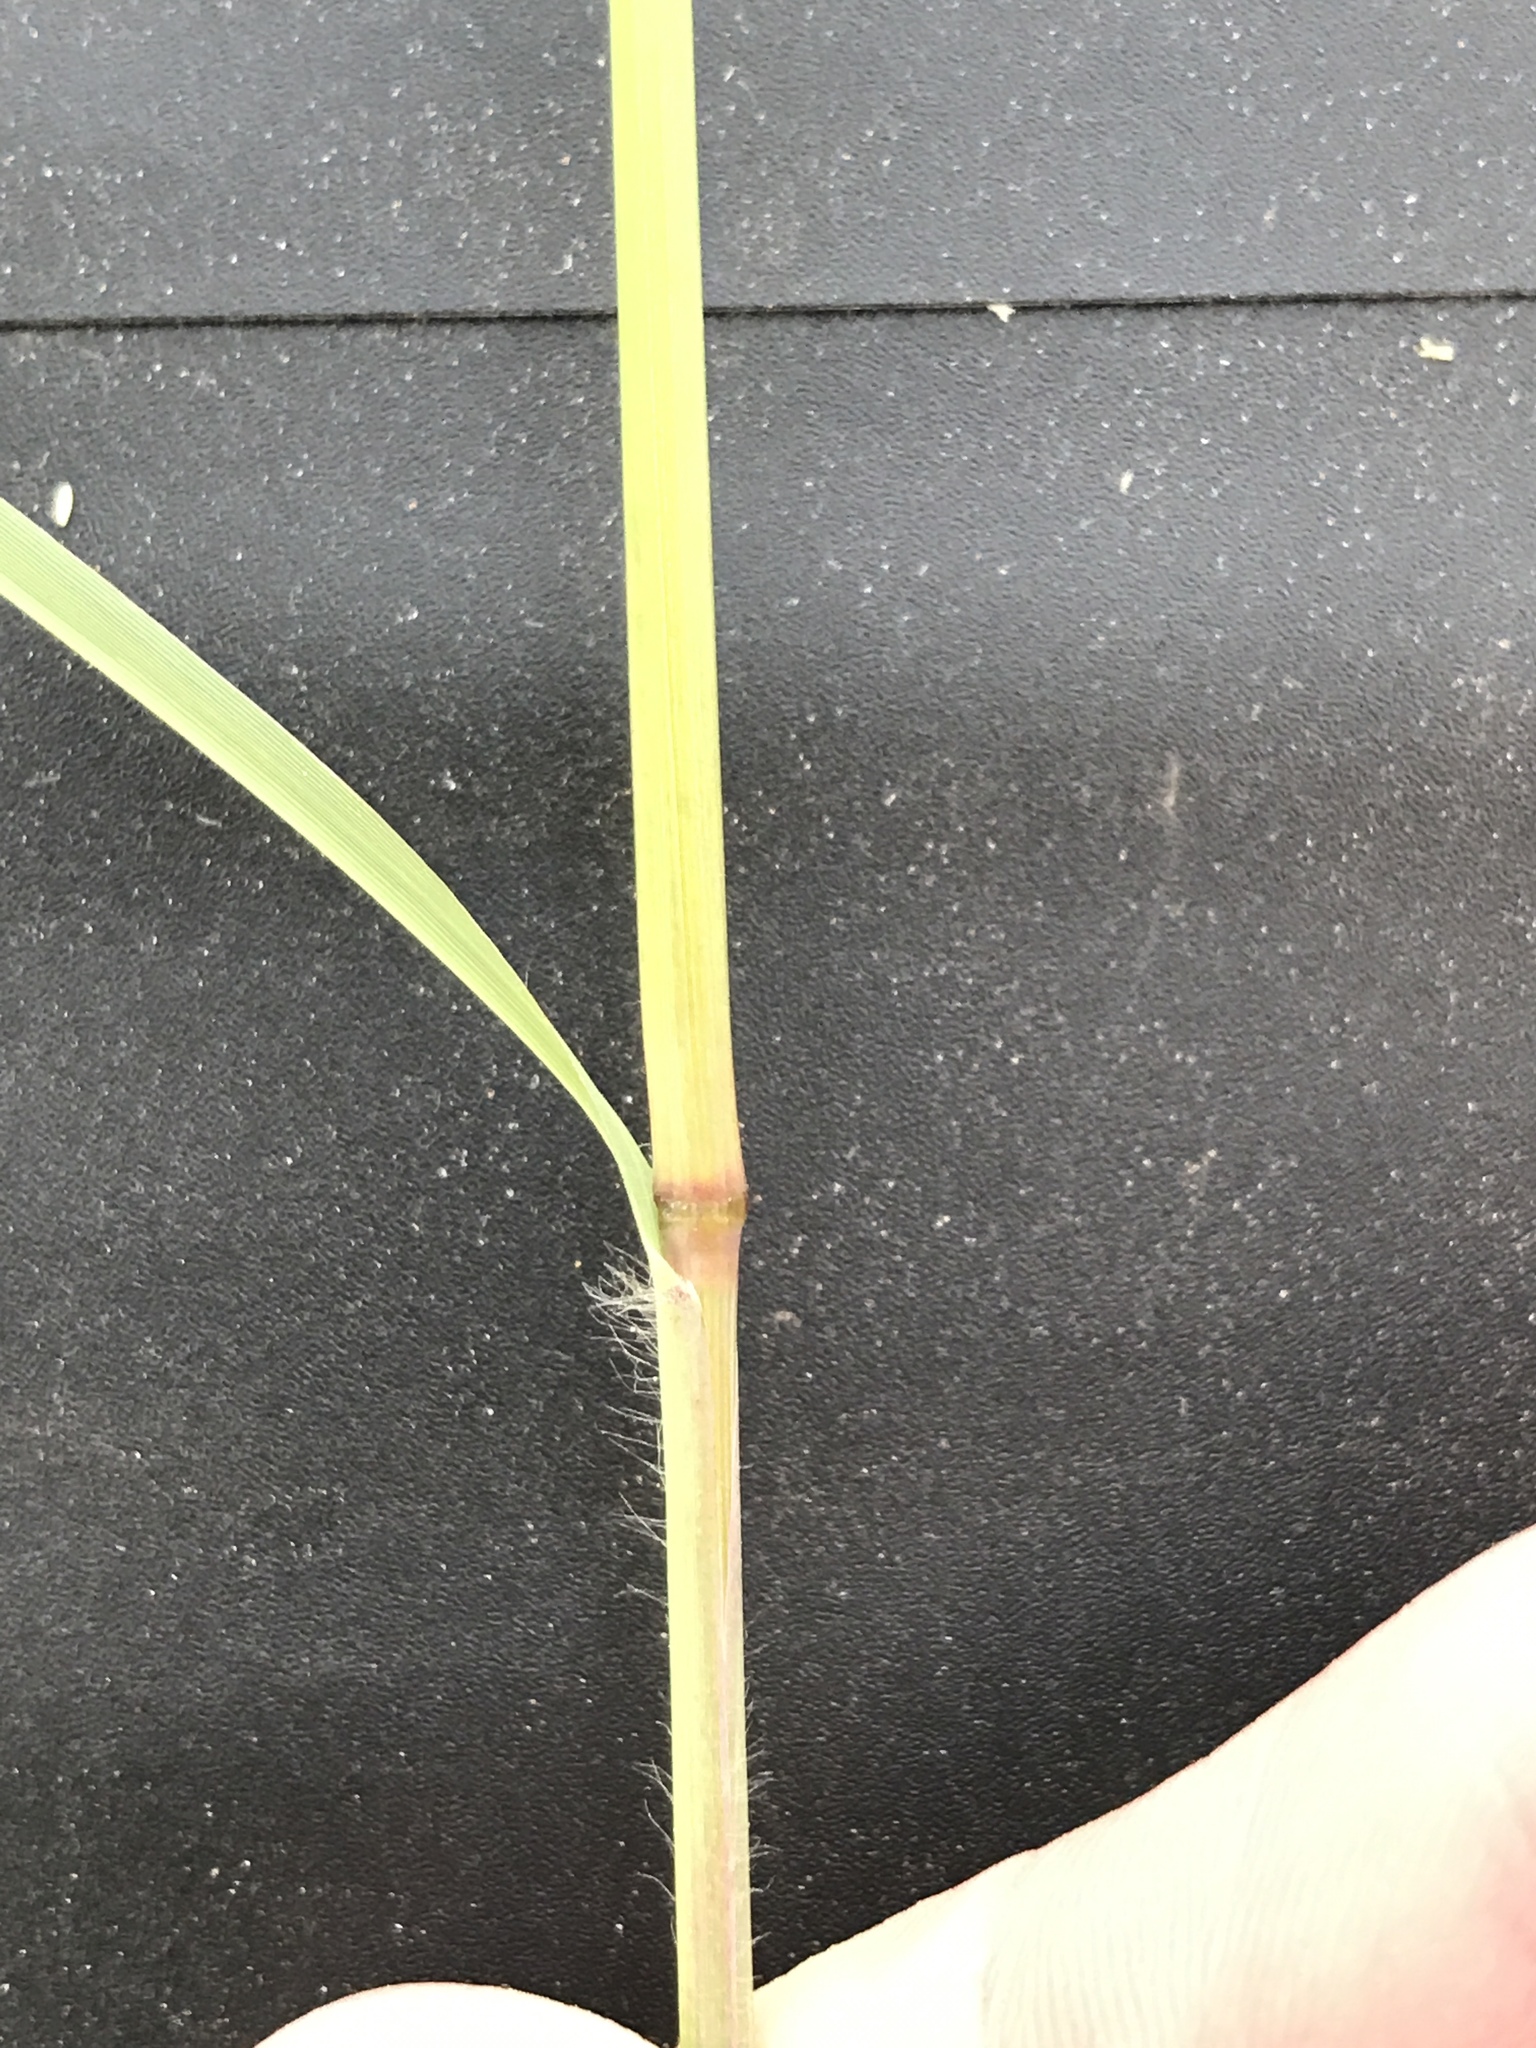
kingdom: Plantae
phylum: Tracheophyta
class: Liliopsida
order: Poales
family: Poaceae
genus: Disakisperma
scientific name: Disakisperma dubium
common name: Green sprangletop
